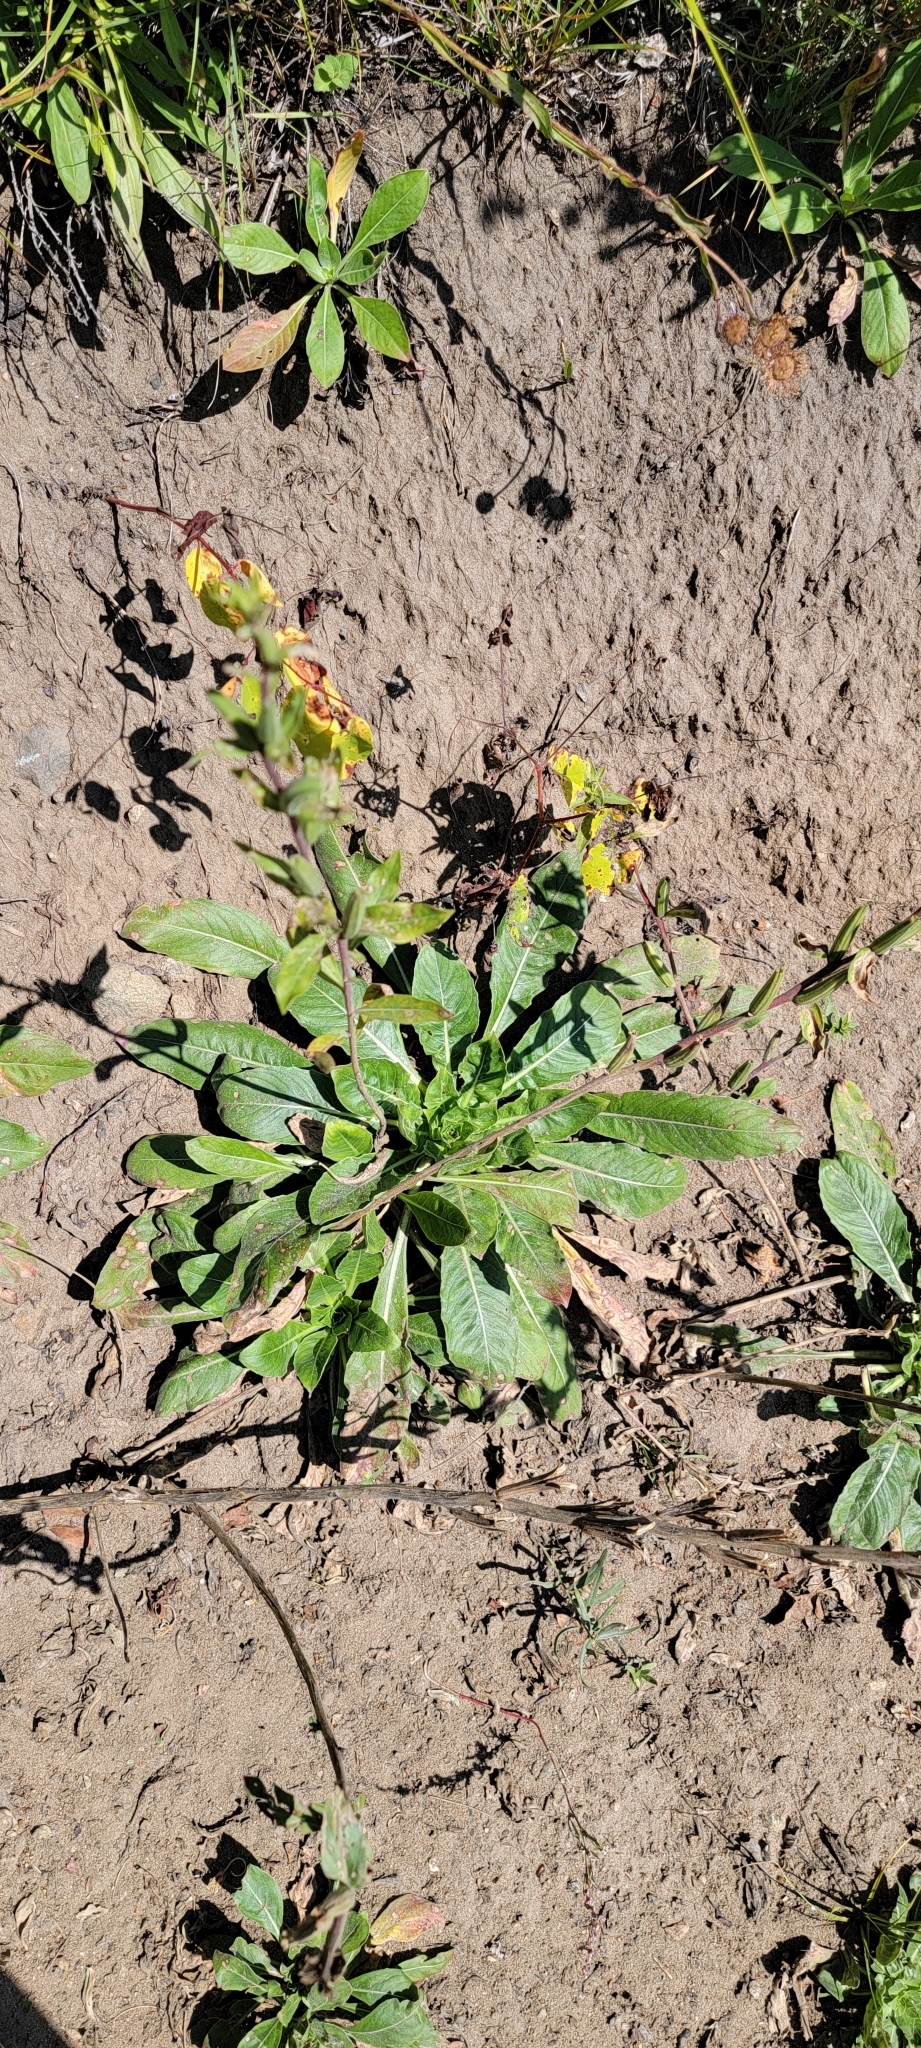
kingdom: Plantae
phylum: Tracheophyta
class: Magnoliopsida
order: Myrtales
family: Onagraceae
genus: Oenothera
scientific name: Oenothera biennis
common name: Common evening-primrose
